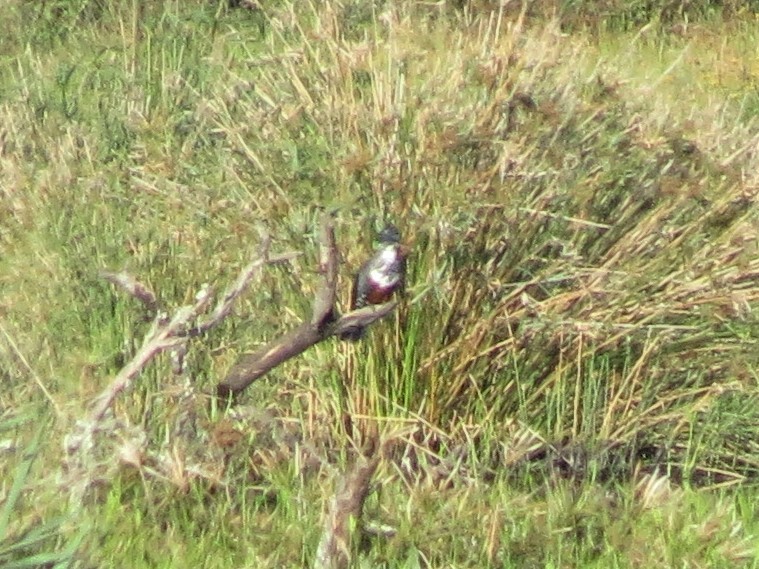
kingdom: Animalia
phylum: Chordata
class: Aves
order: Coraciiformes
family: Alcedinidae
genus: Megaceryle
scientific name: Megaceryle maxima
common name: Giant kingfisher
